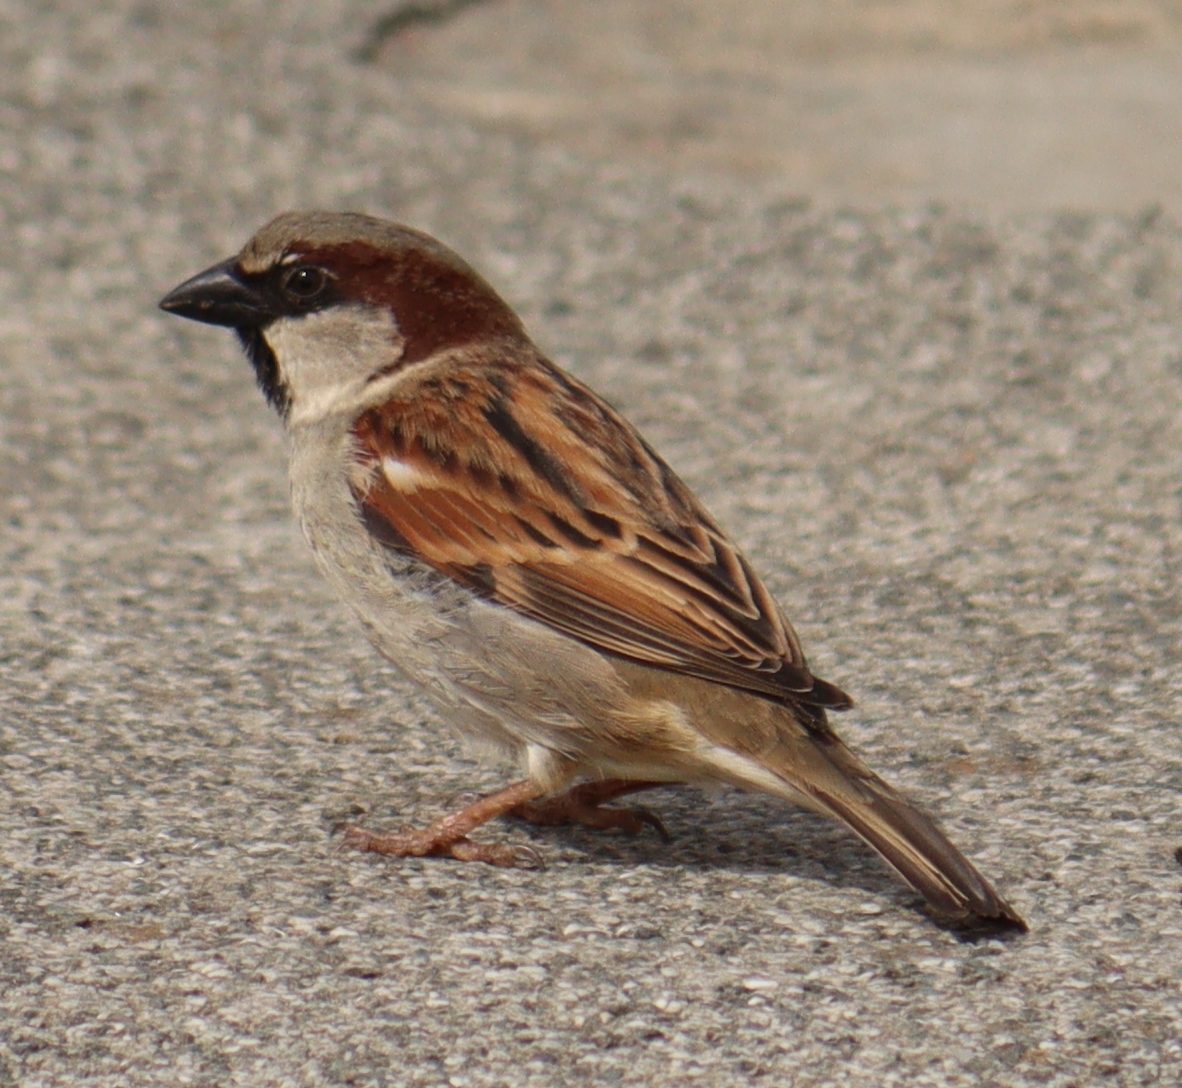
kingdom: Animalia
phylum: Chordata
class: Aves
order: Passeriformes
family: Passeridae
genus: Passer
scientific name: Passer domesticus
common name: House sparrow
